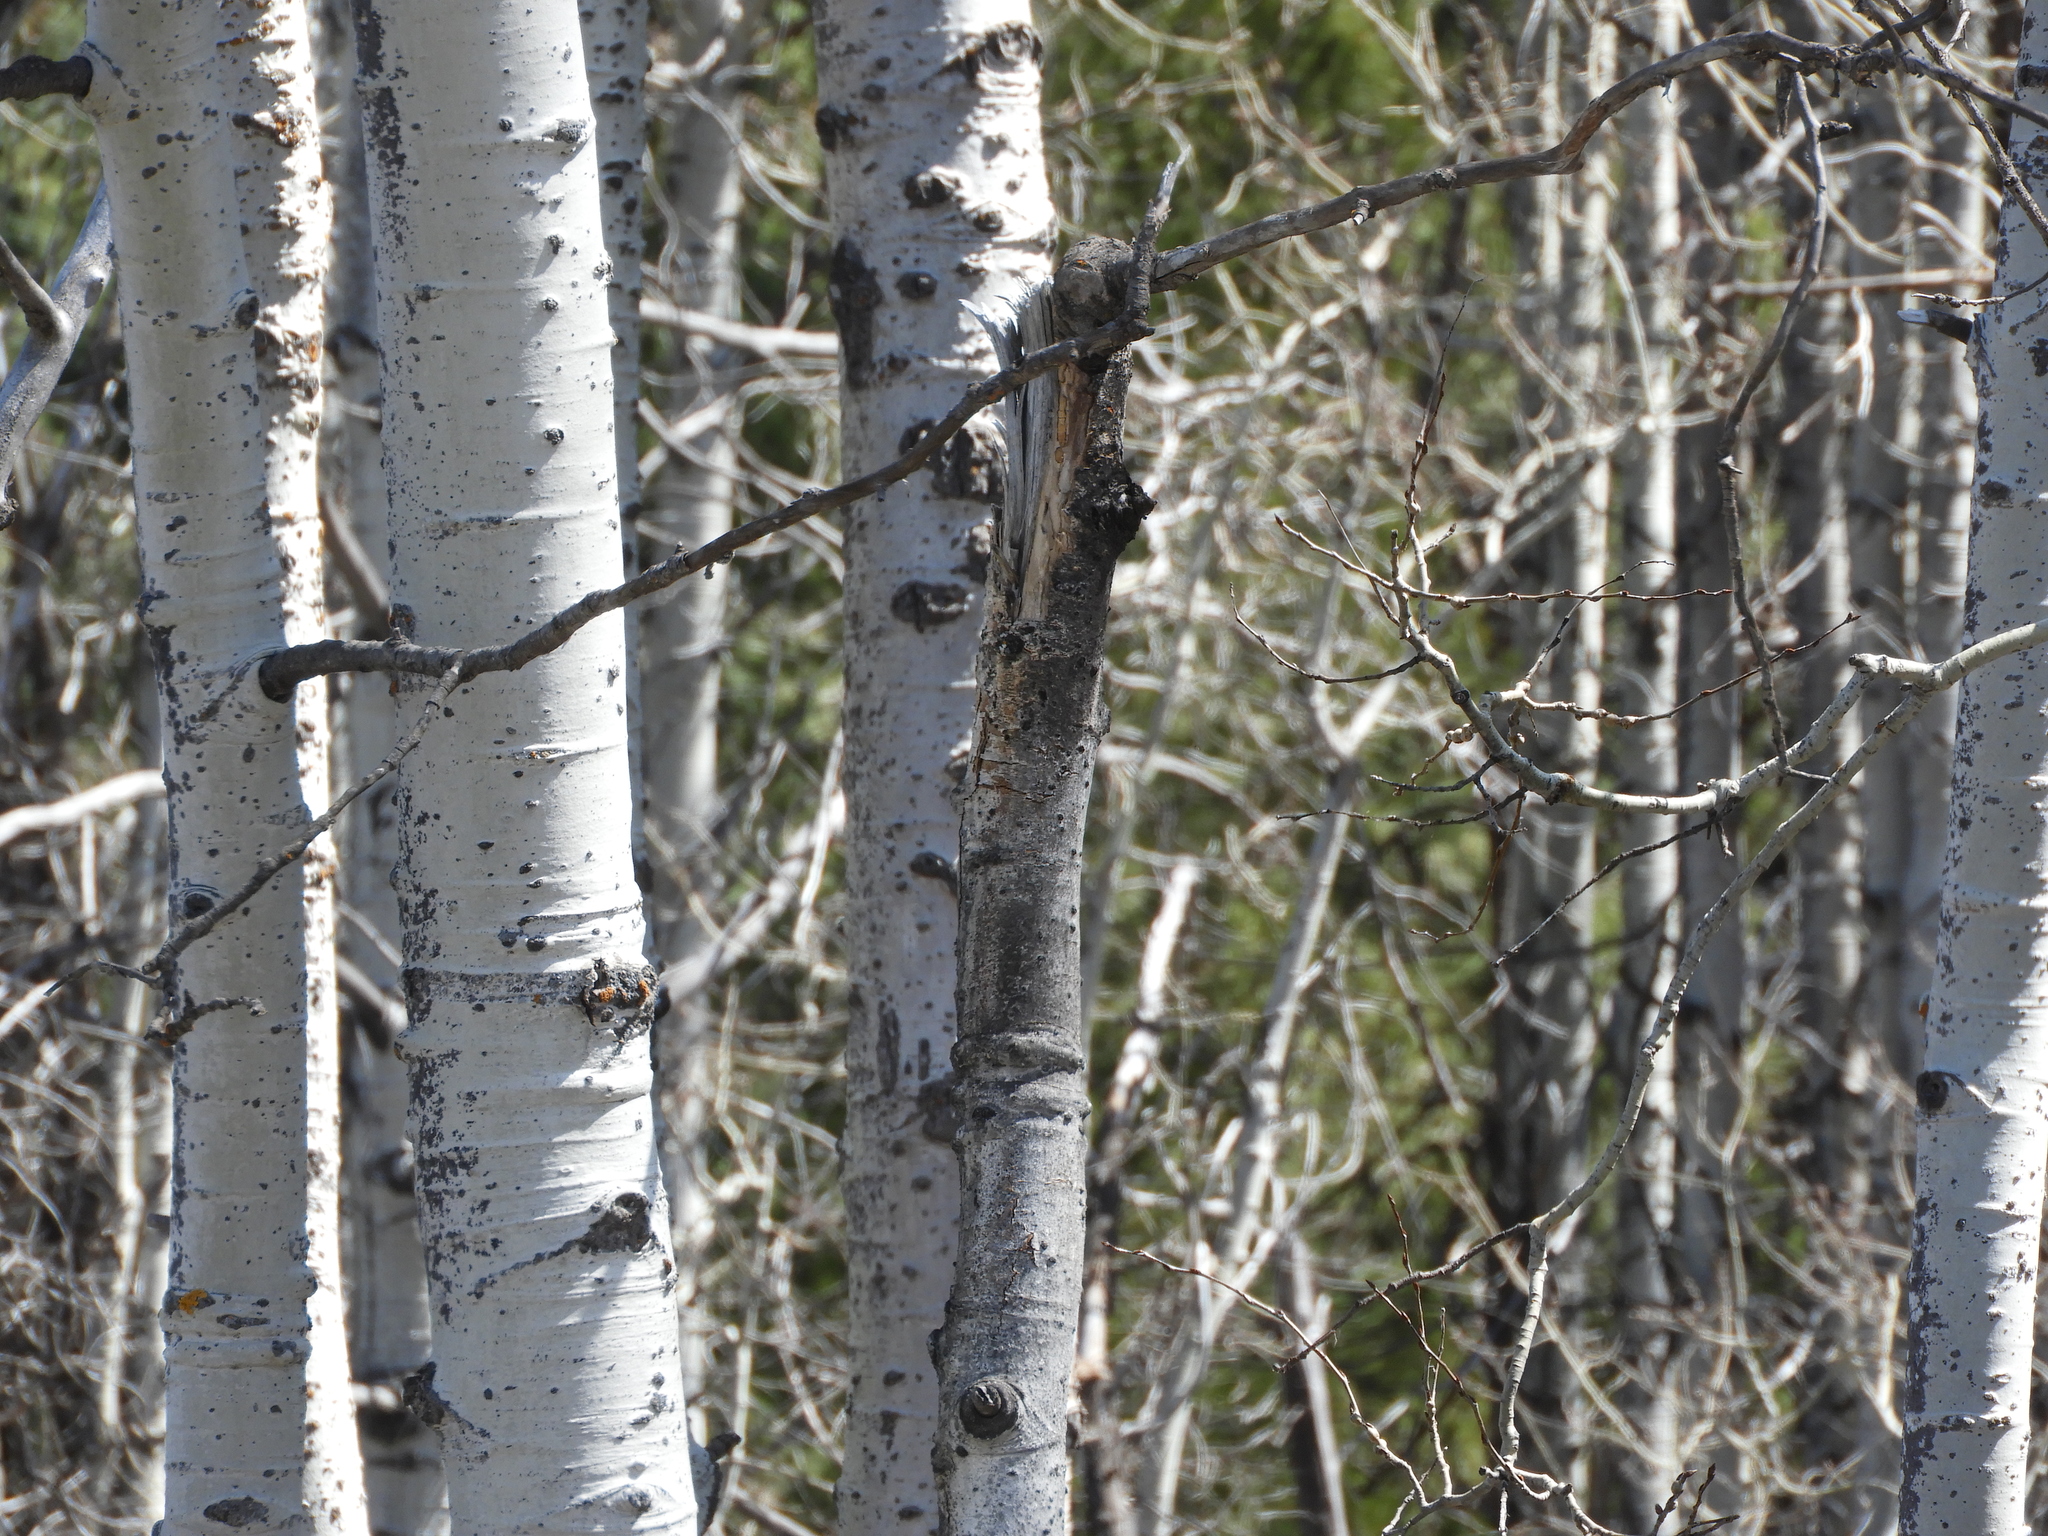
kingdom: Plantae
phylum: Tracheophyta
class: Magnoliopsida
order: Malpighiales
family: Salicaceae
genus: Populus
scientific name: Populus tremuloides
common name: Quaking aspen
